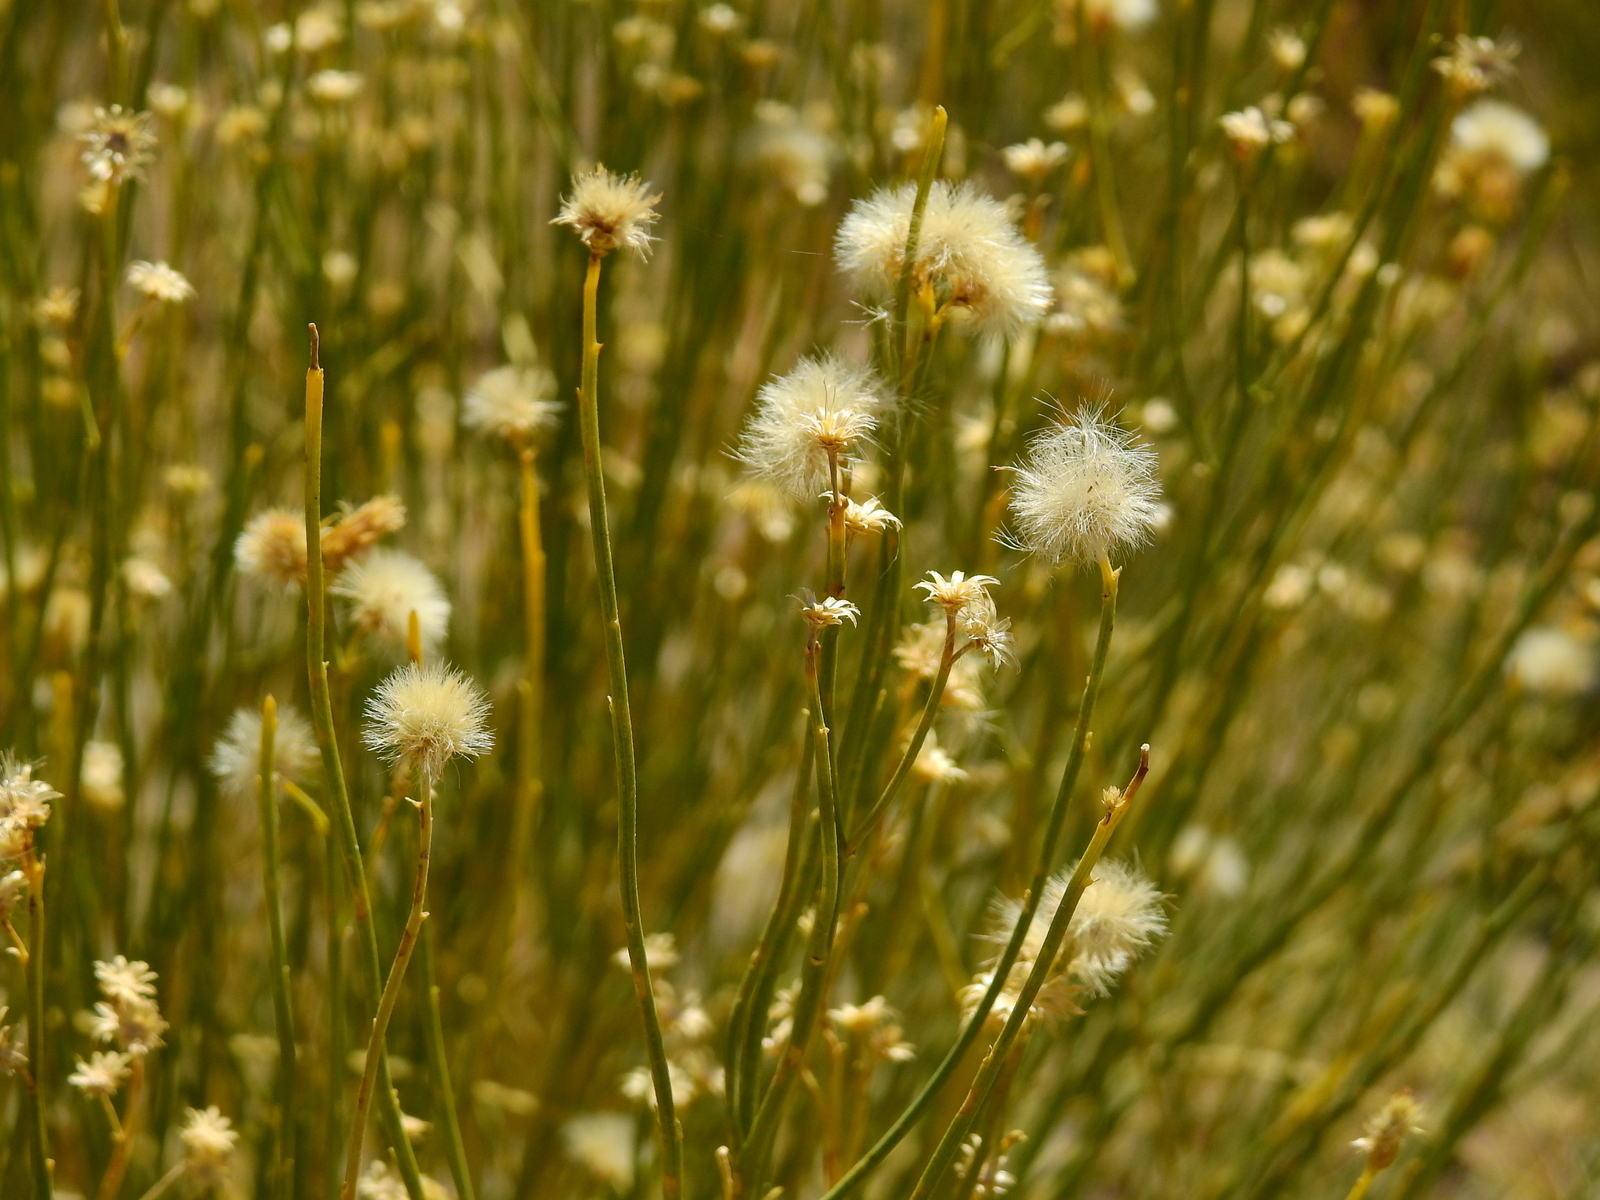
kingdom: Plantae
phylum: Tracheophyta
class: Magnoliopsida
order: Asterales
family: Asteraceae
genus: Pseudobaccharis
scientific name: Pseudobaccharis spartioides
